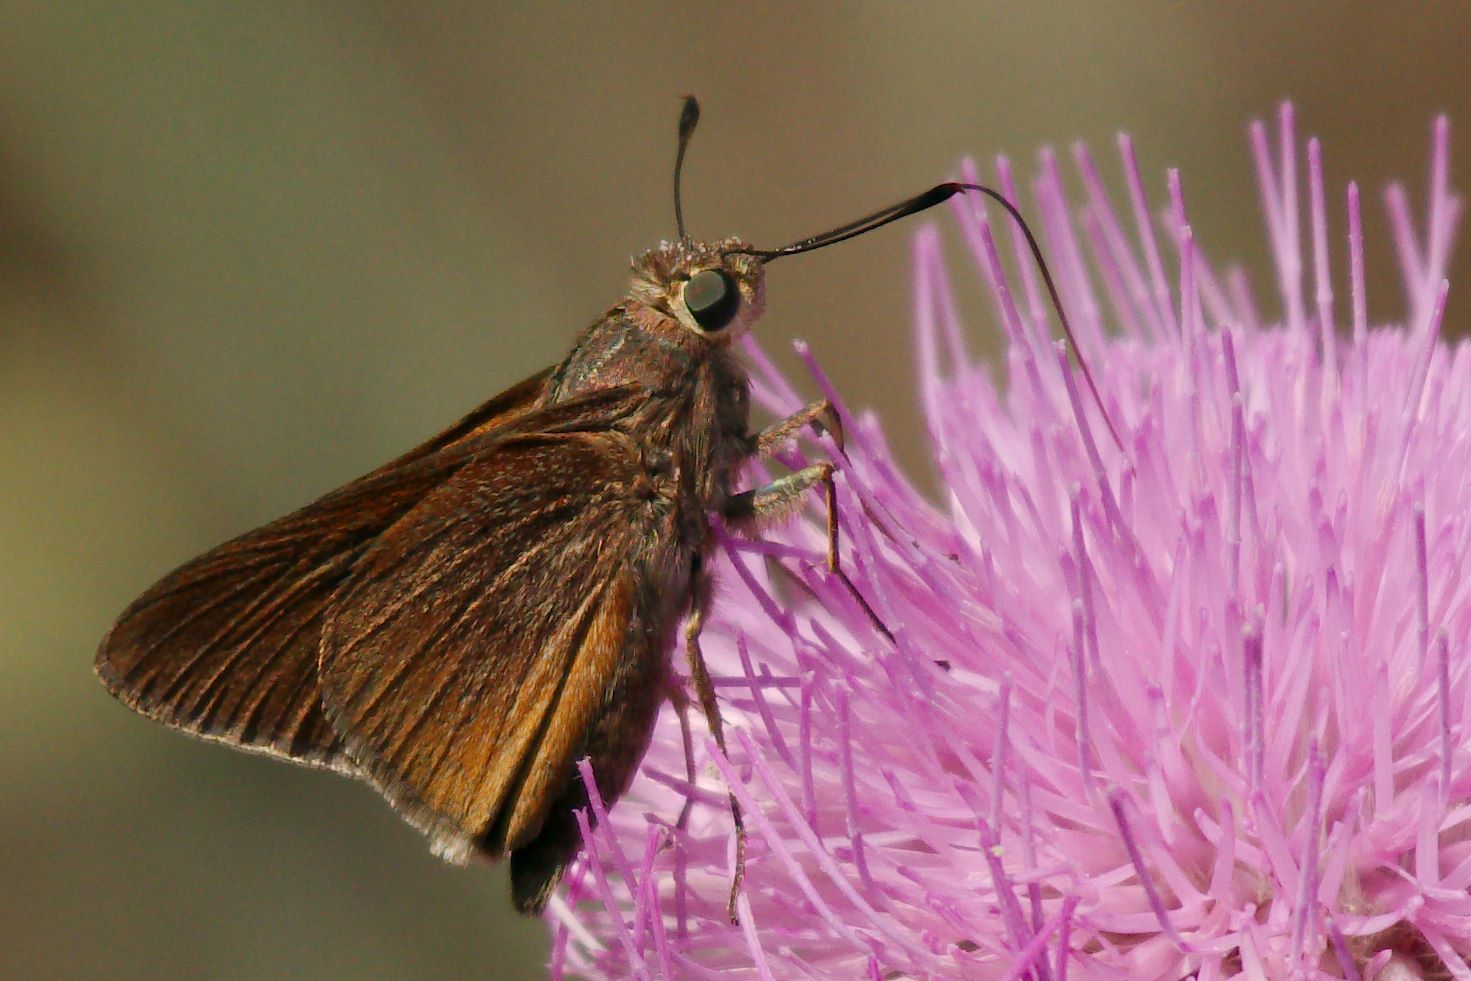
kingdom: Animalia
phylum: Arthropoda
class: Insecta
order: Lepidoptera
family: Hesperiidae
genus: Asbolis
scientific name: Asbolis capucinus
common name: Monk skipper
